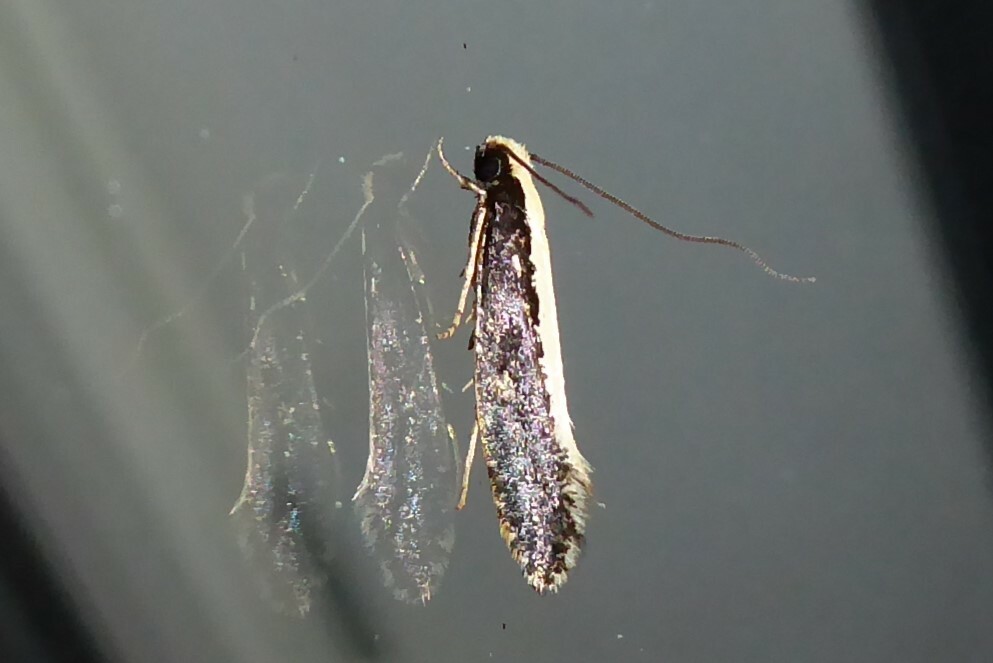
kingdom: Animalia
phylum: Arthropoda
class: Insecta
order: Lepidoptera
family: Tineidae
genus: Monopis
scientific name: Monopis ethelella
